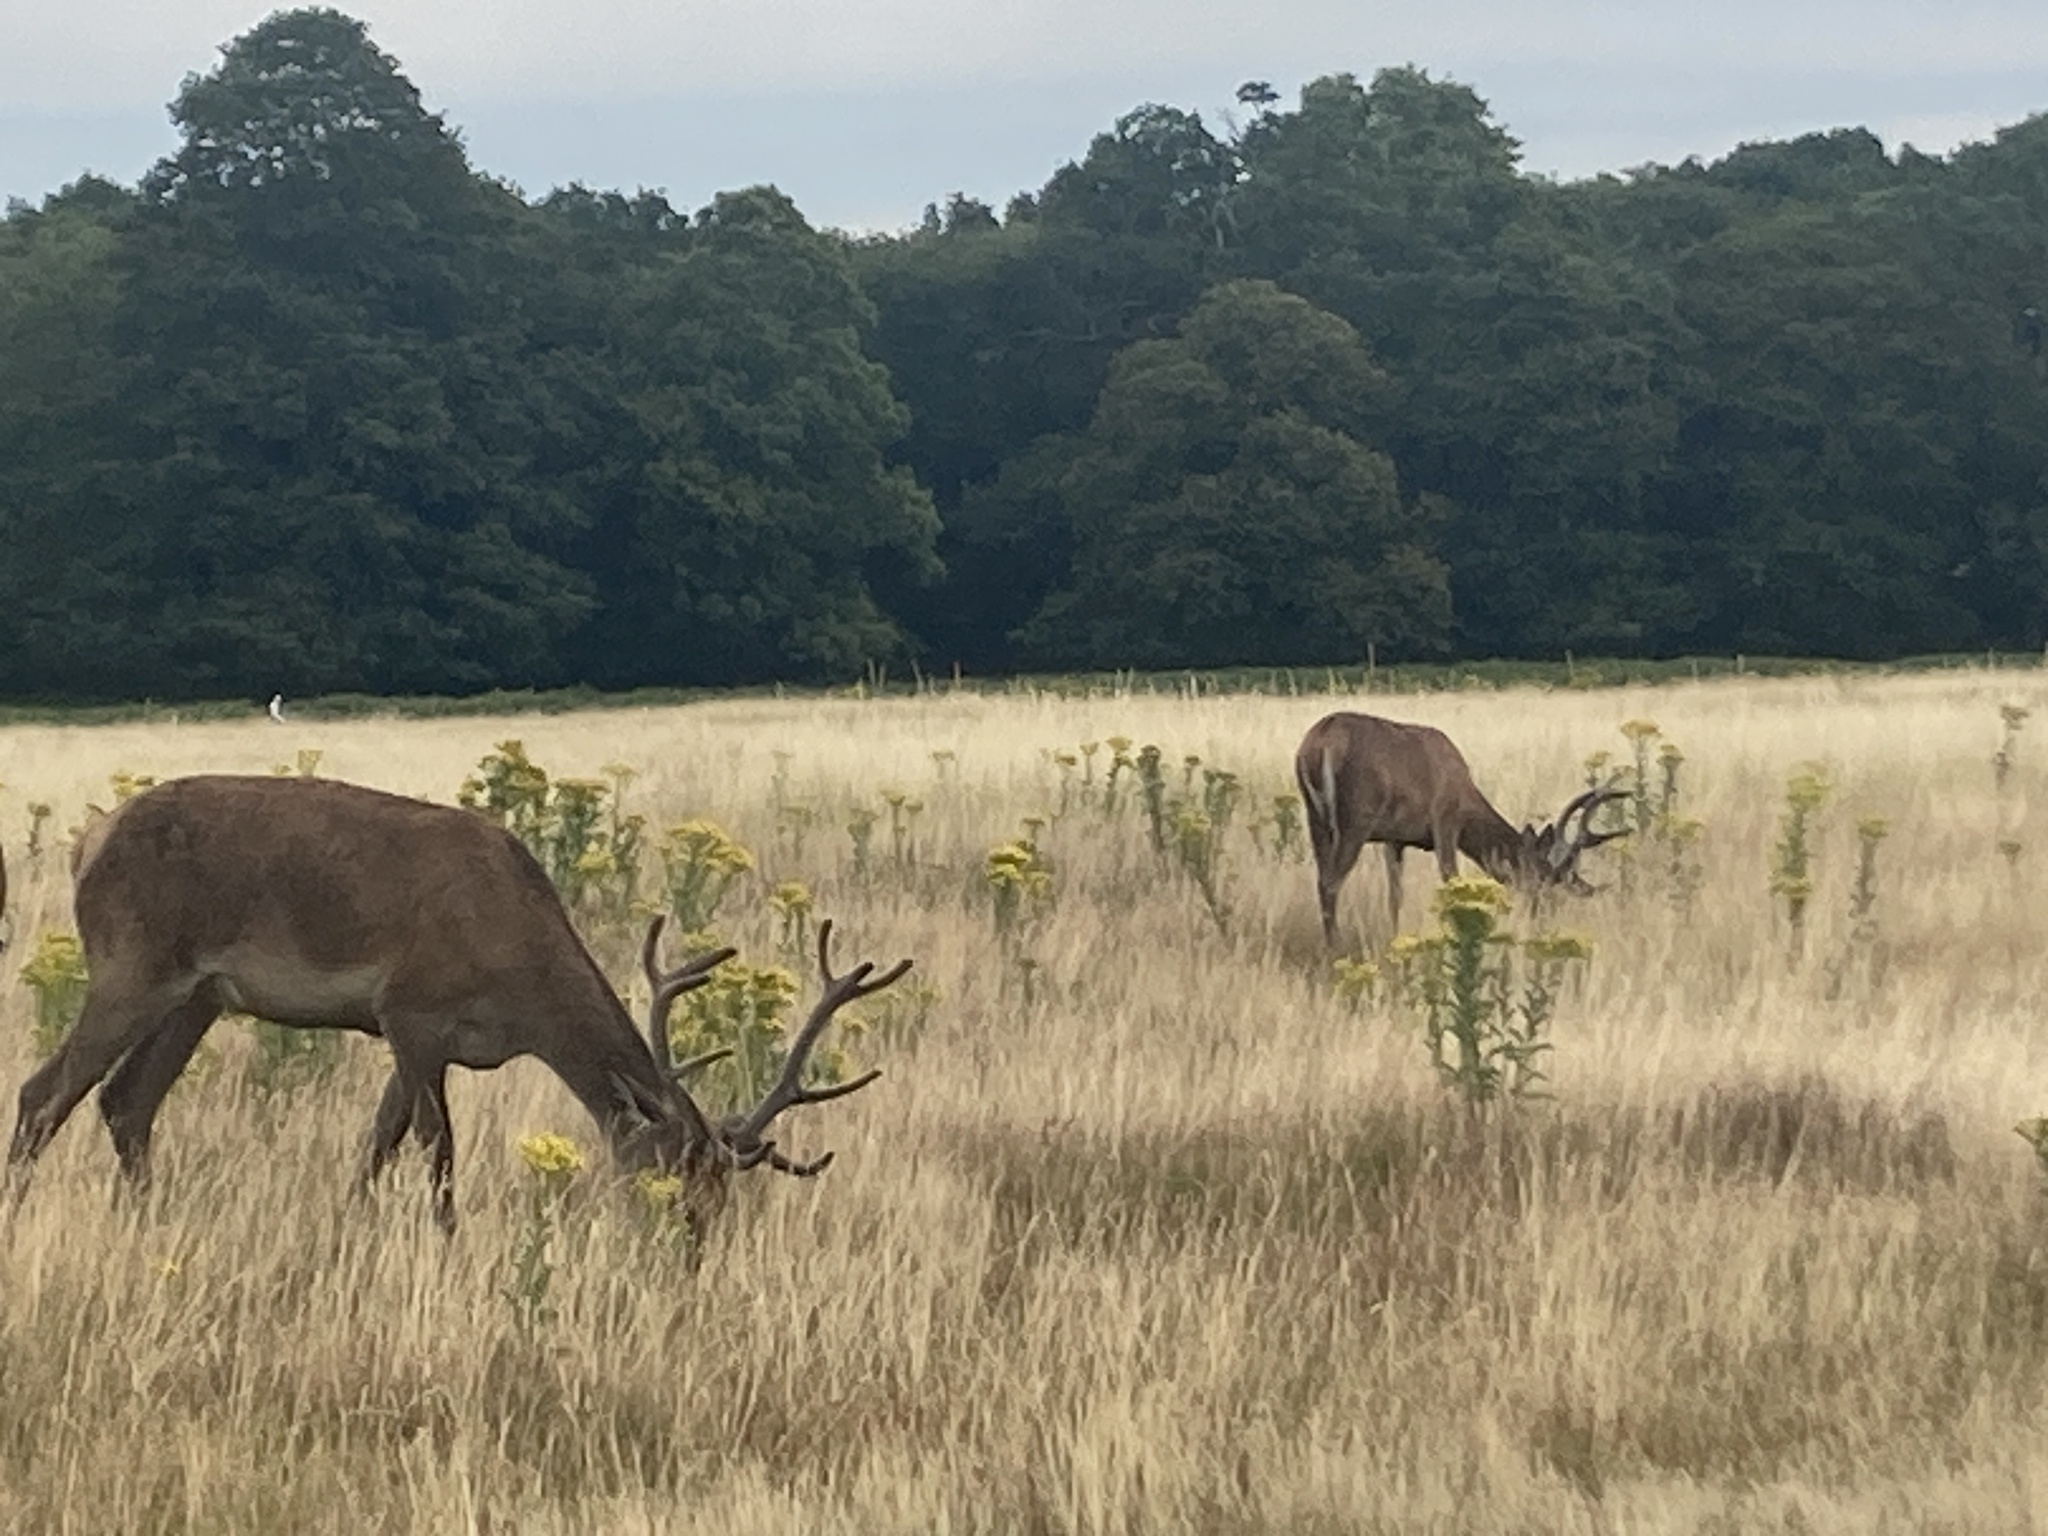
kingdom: Animalia
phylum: Chordata
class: Mammalia
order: Artiodactyla
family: Cervidae
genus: Cervus
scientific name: Cervus elaphus
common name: Red deer
